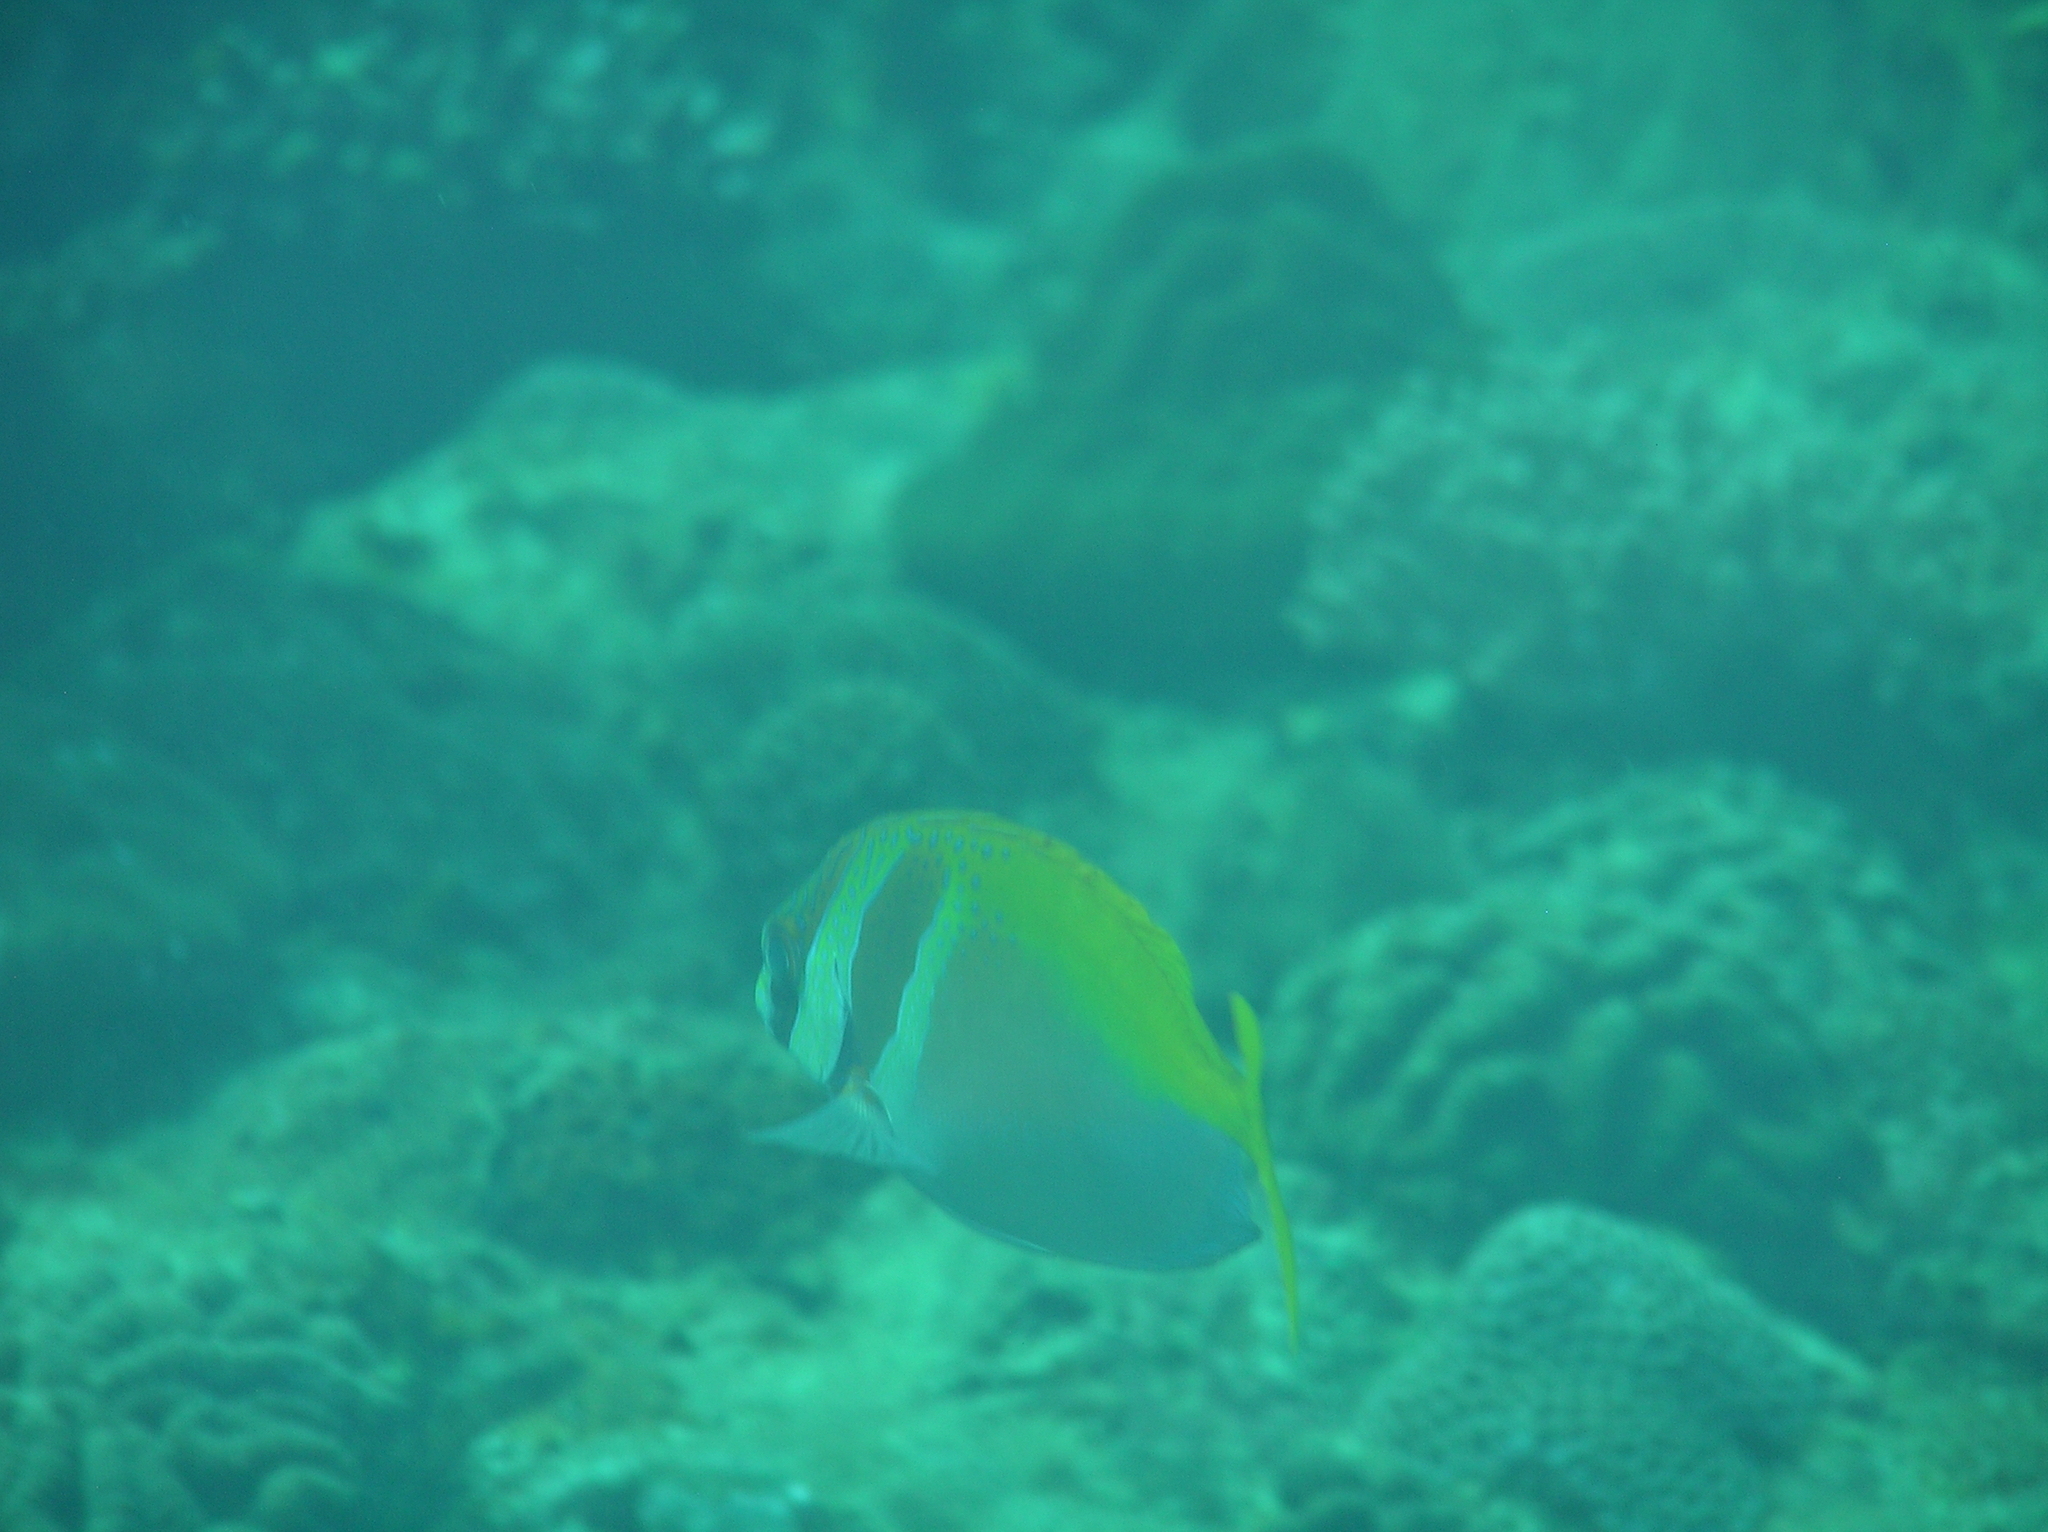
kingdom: Animalia
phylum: Chordata
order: Perciformes
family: Siganidae
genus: Siganus
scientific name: Siganus virgatus
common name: Barhead spinefoot
